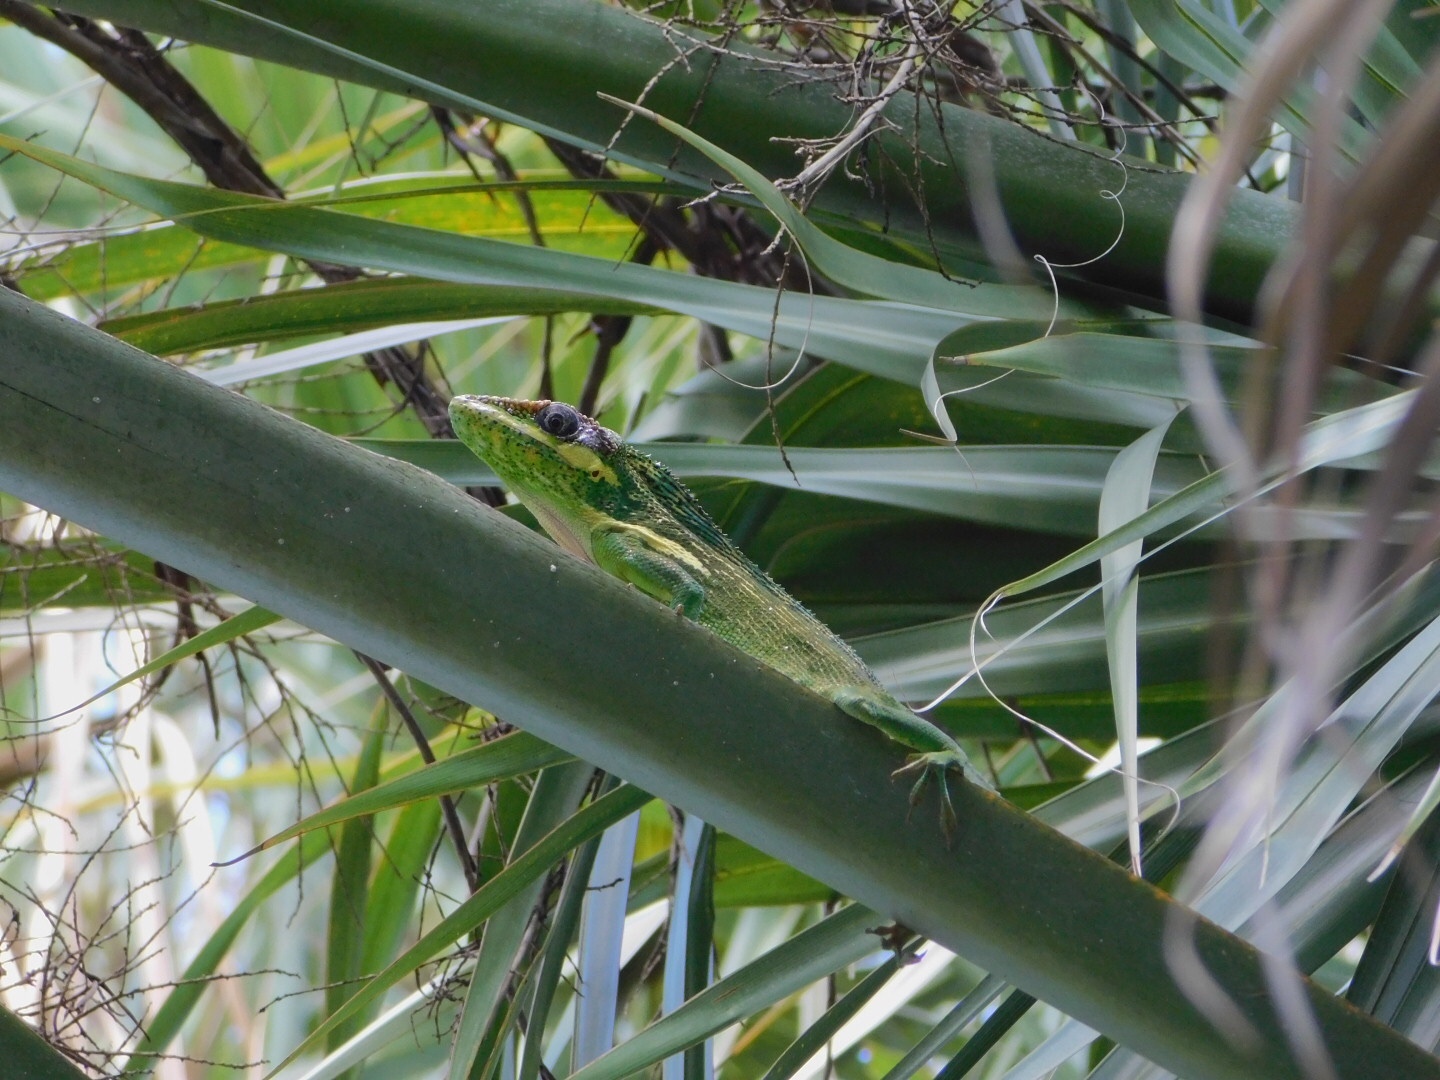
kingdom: Animalia
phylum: Chordata
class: Squamata
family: Dactyloidae
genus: Anolis
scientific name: Anolis equestris
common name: Knight anole
